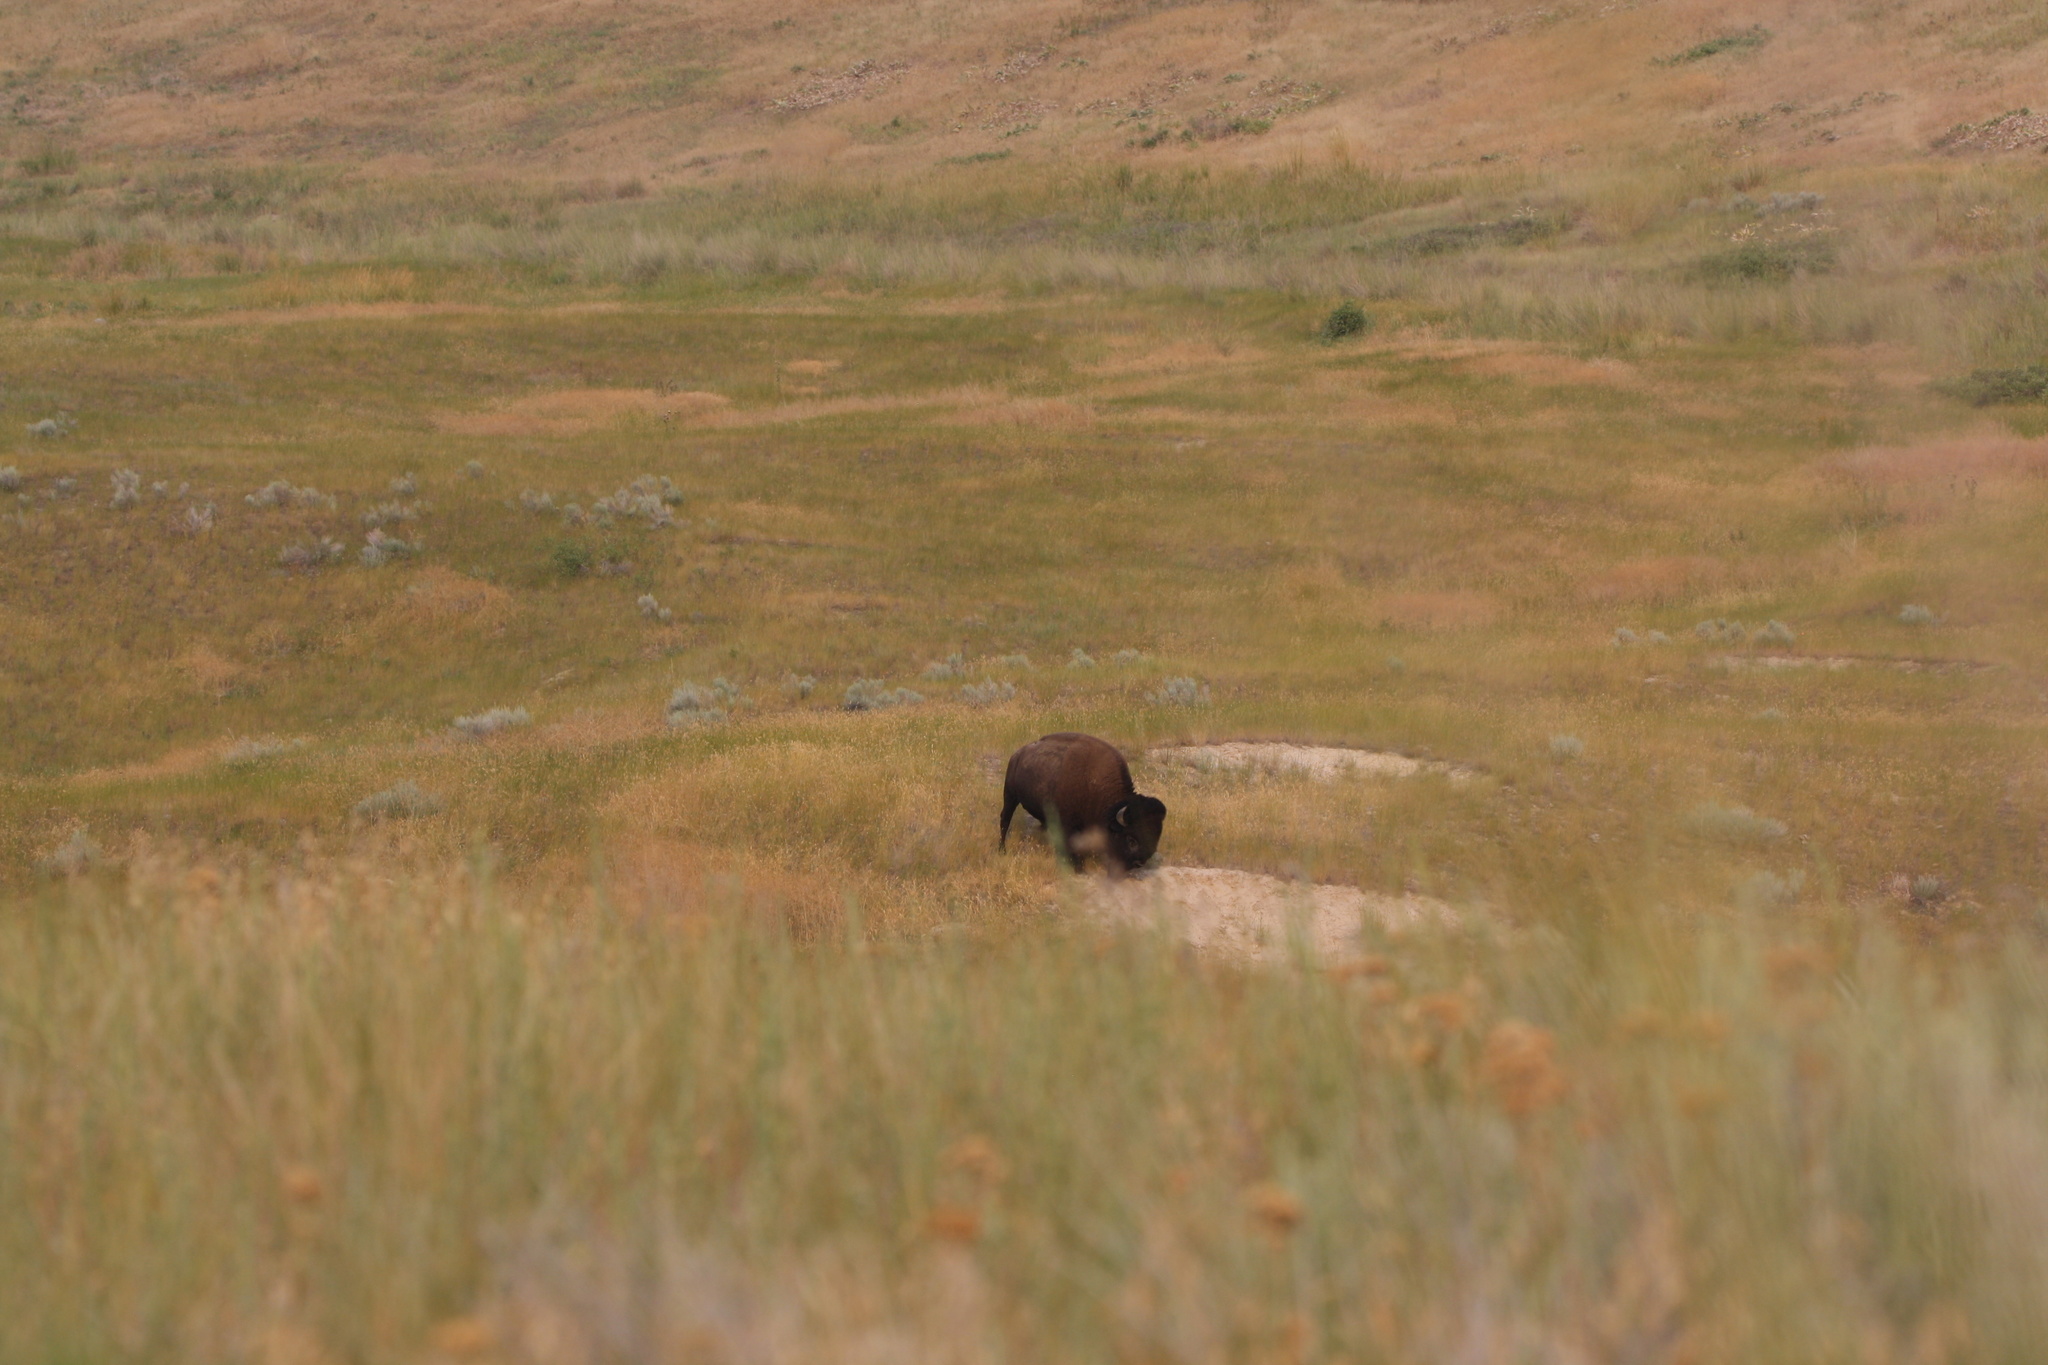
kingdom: Animalia
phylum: Chordata
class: Mammalia
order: Artiodactyla
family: Bovidae
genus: Bison
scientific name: Bison bison
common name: American bison
